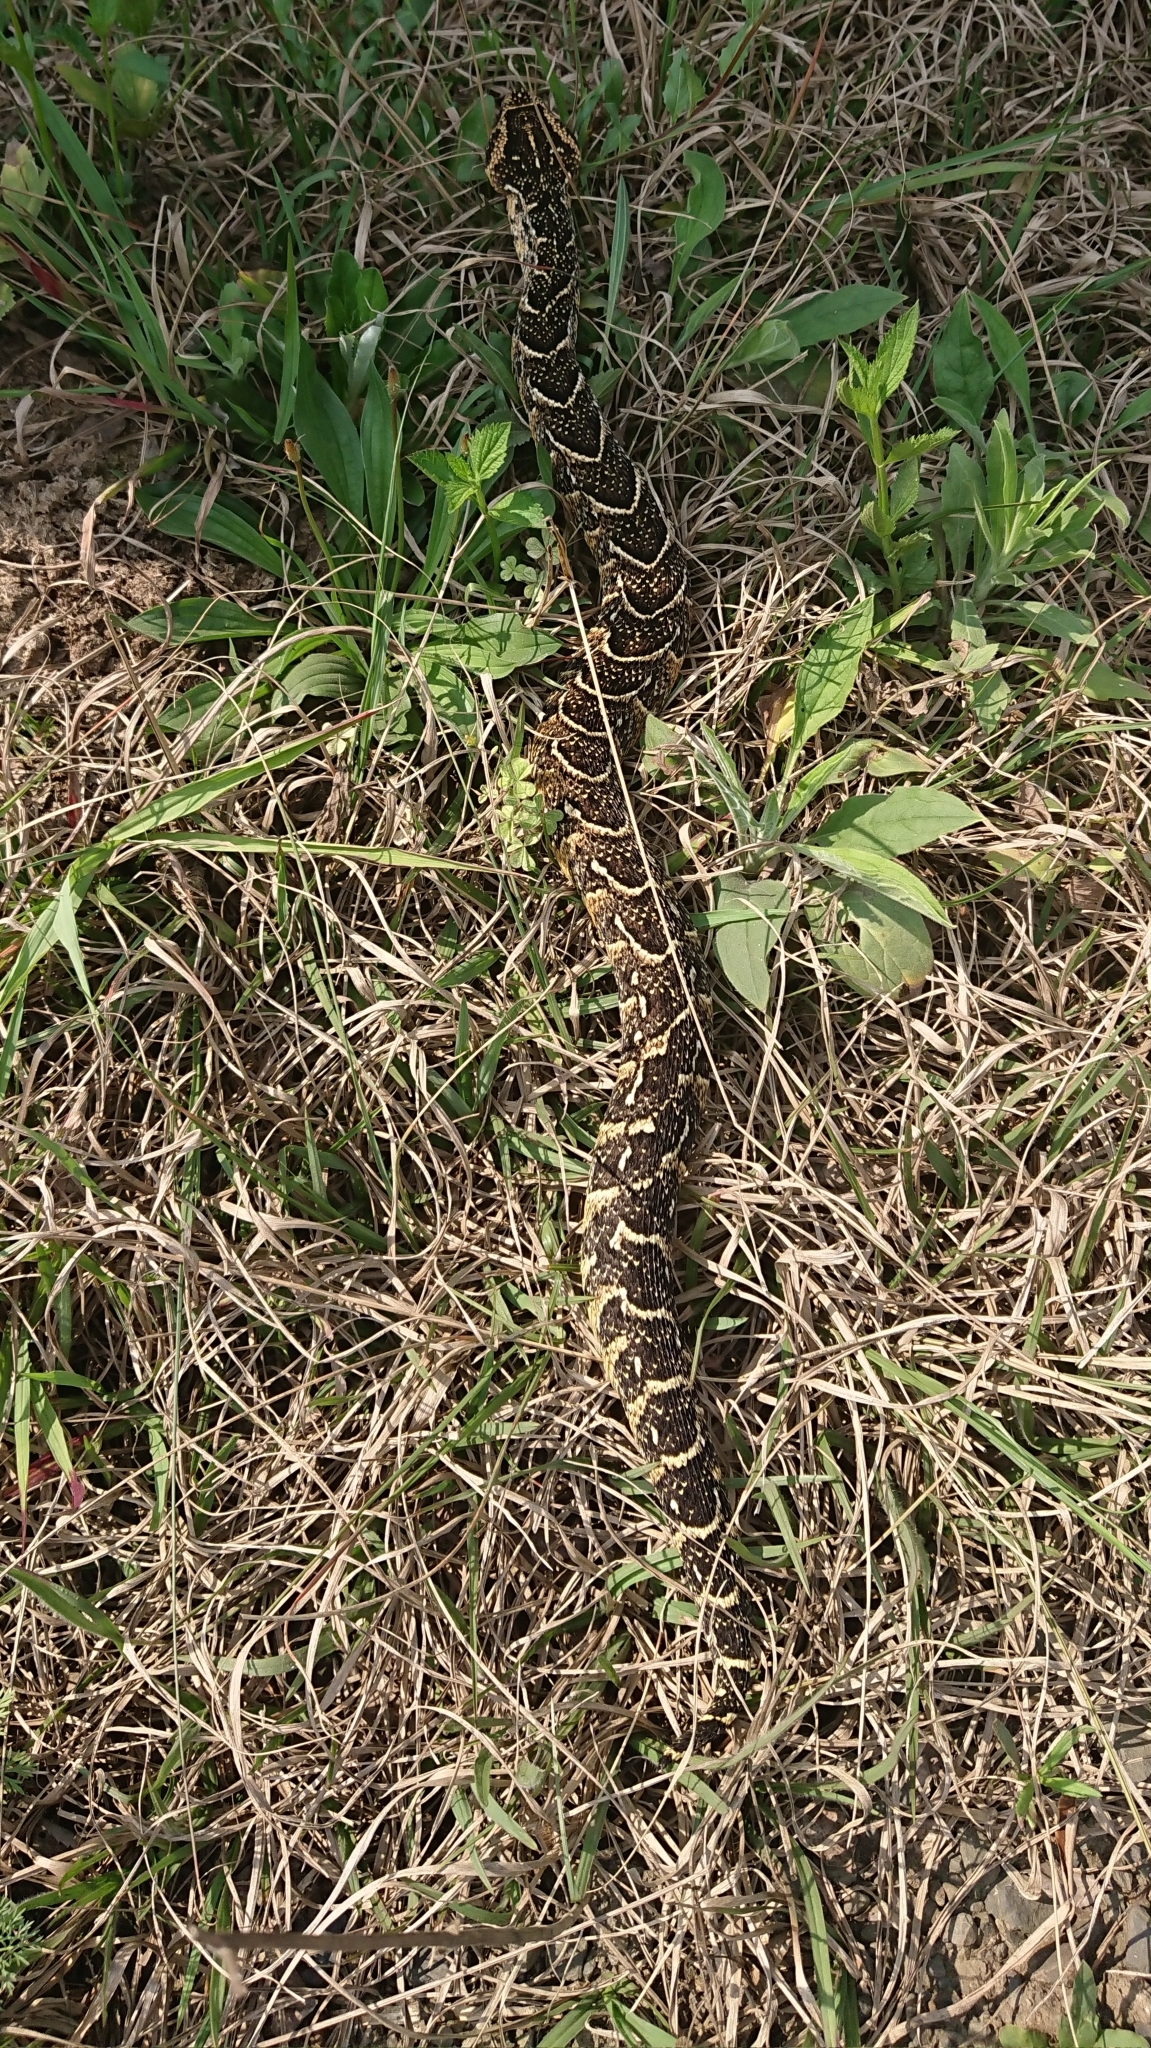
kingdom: Animalia
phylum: Chordata
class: Squamata
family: Viperidae
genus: Bitis
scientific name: Bitis arietans
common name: Puff adder
